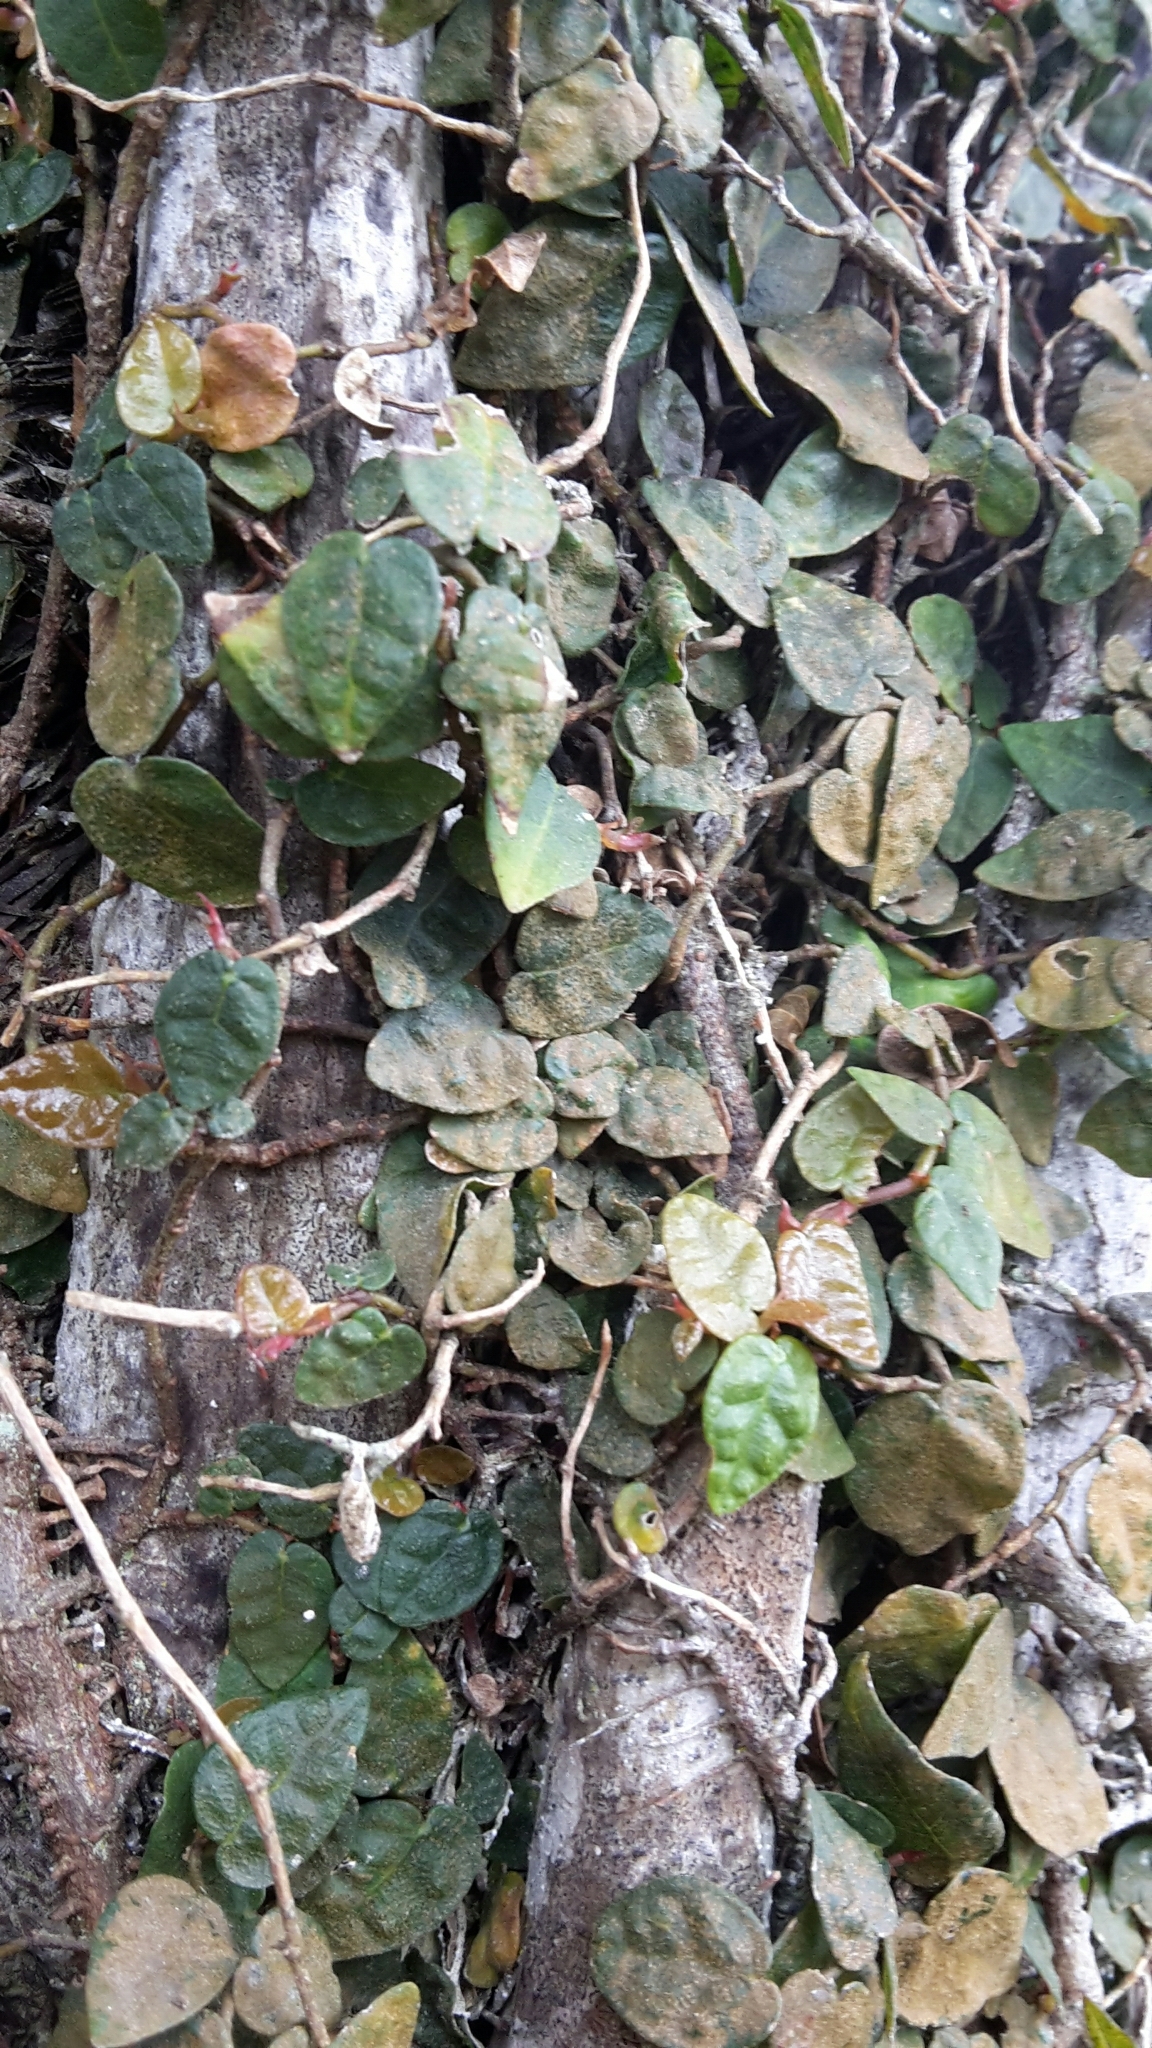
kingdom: Plantae
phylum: Tracheophyta
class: Magnoliopsida
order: Rosales
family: Moraceae
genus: Ficus
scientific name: Ficus pumila
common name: Climbingfig
